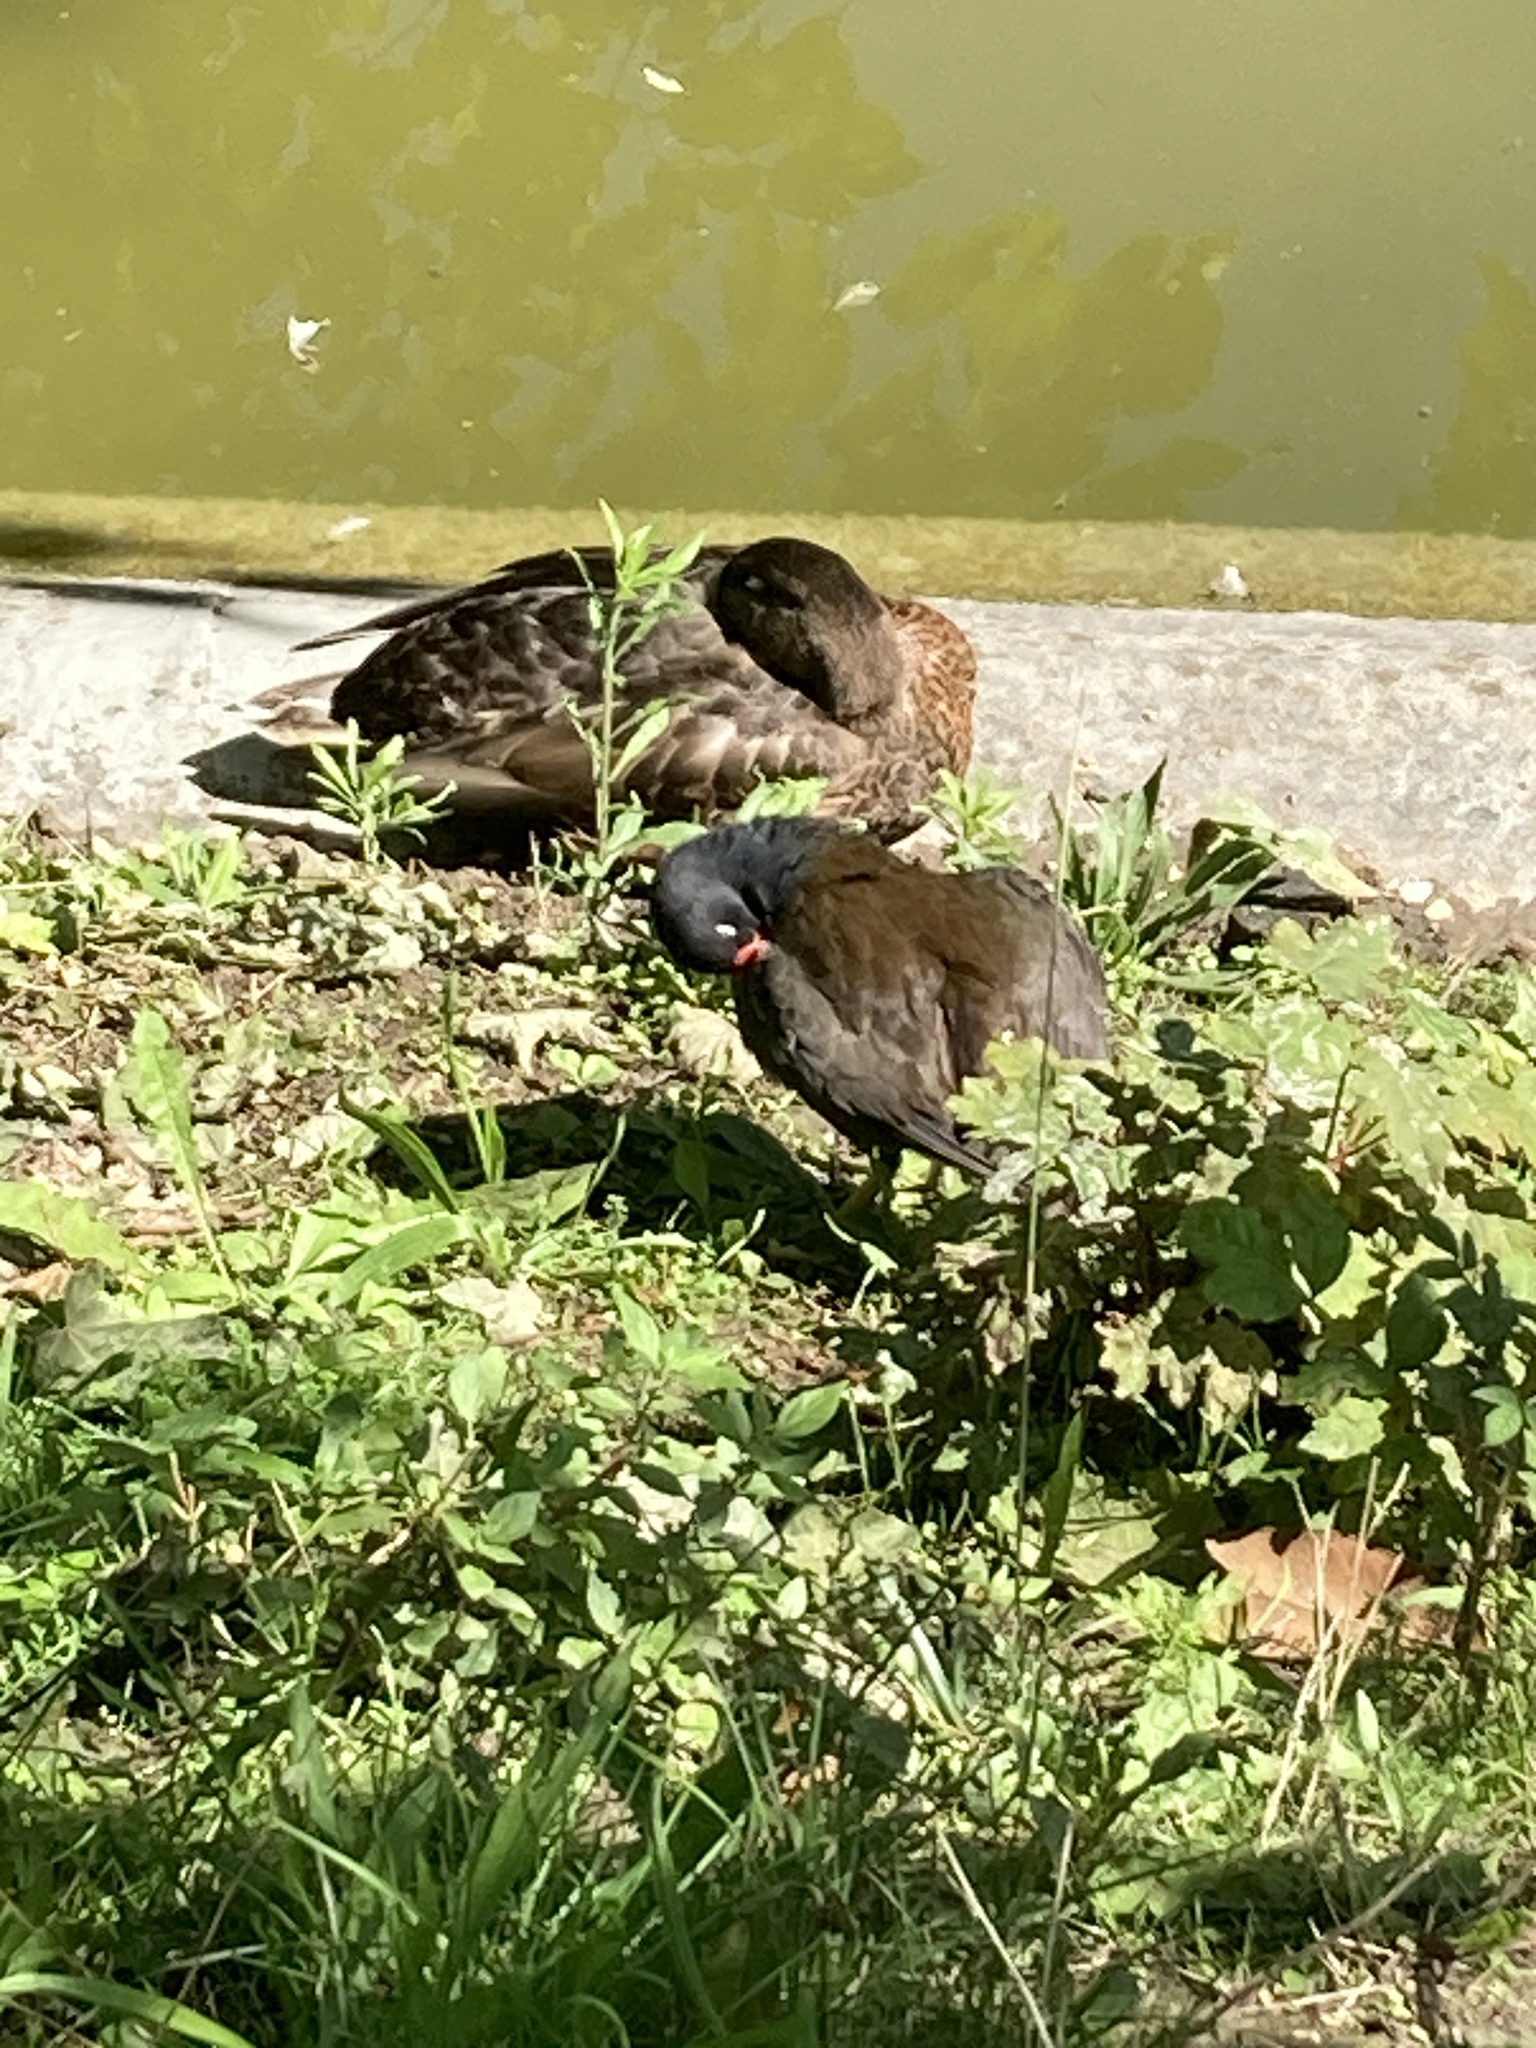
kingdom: Animalia
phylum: Chordata
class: Aves
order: Gruiformes
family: Rallidae
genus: Gallinula
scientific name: Gallinula chloropus
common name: Common moorhen
